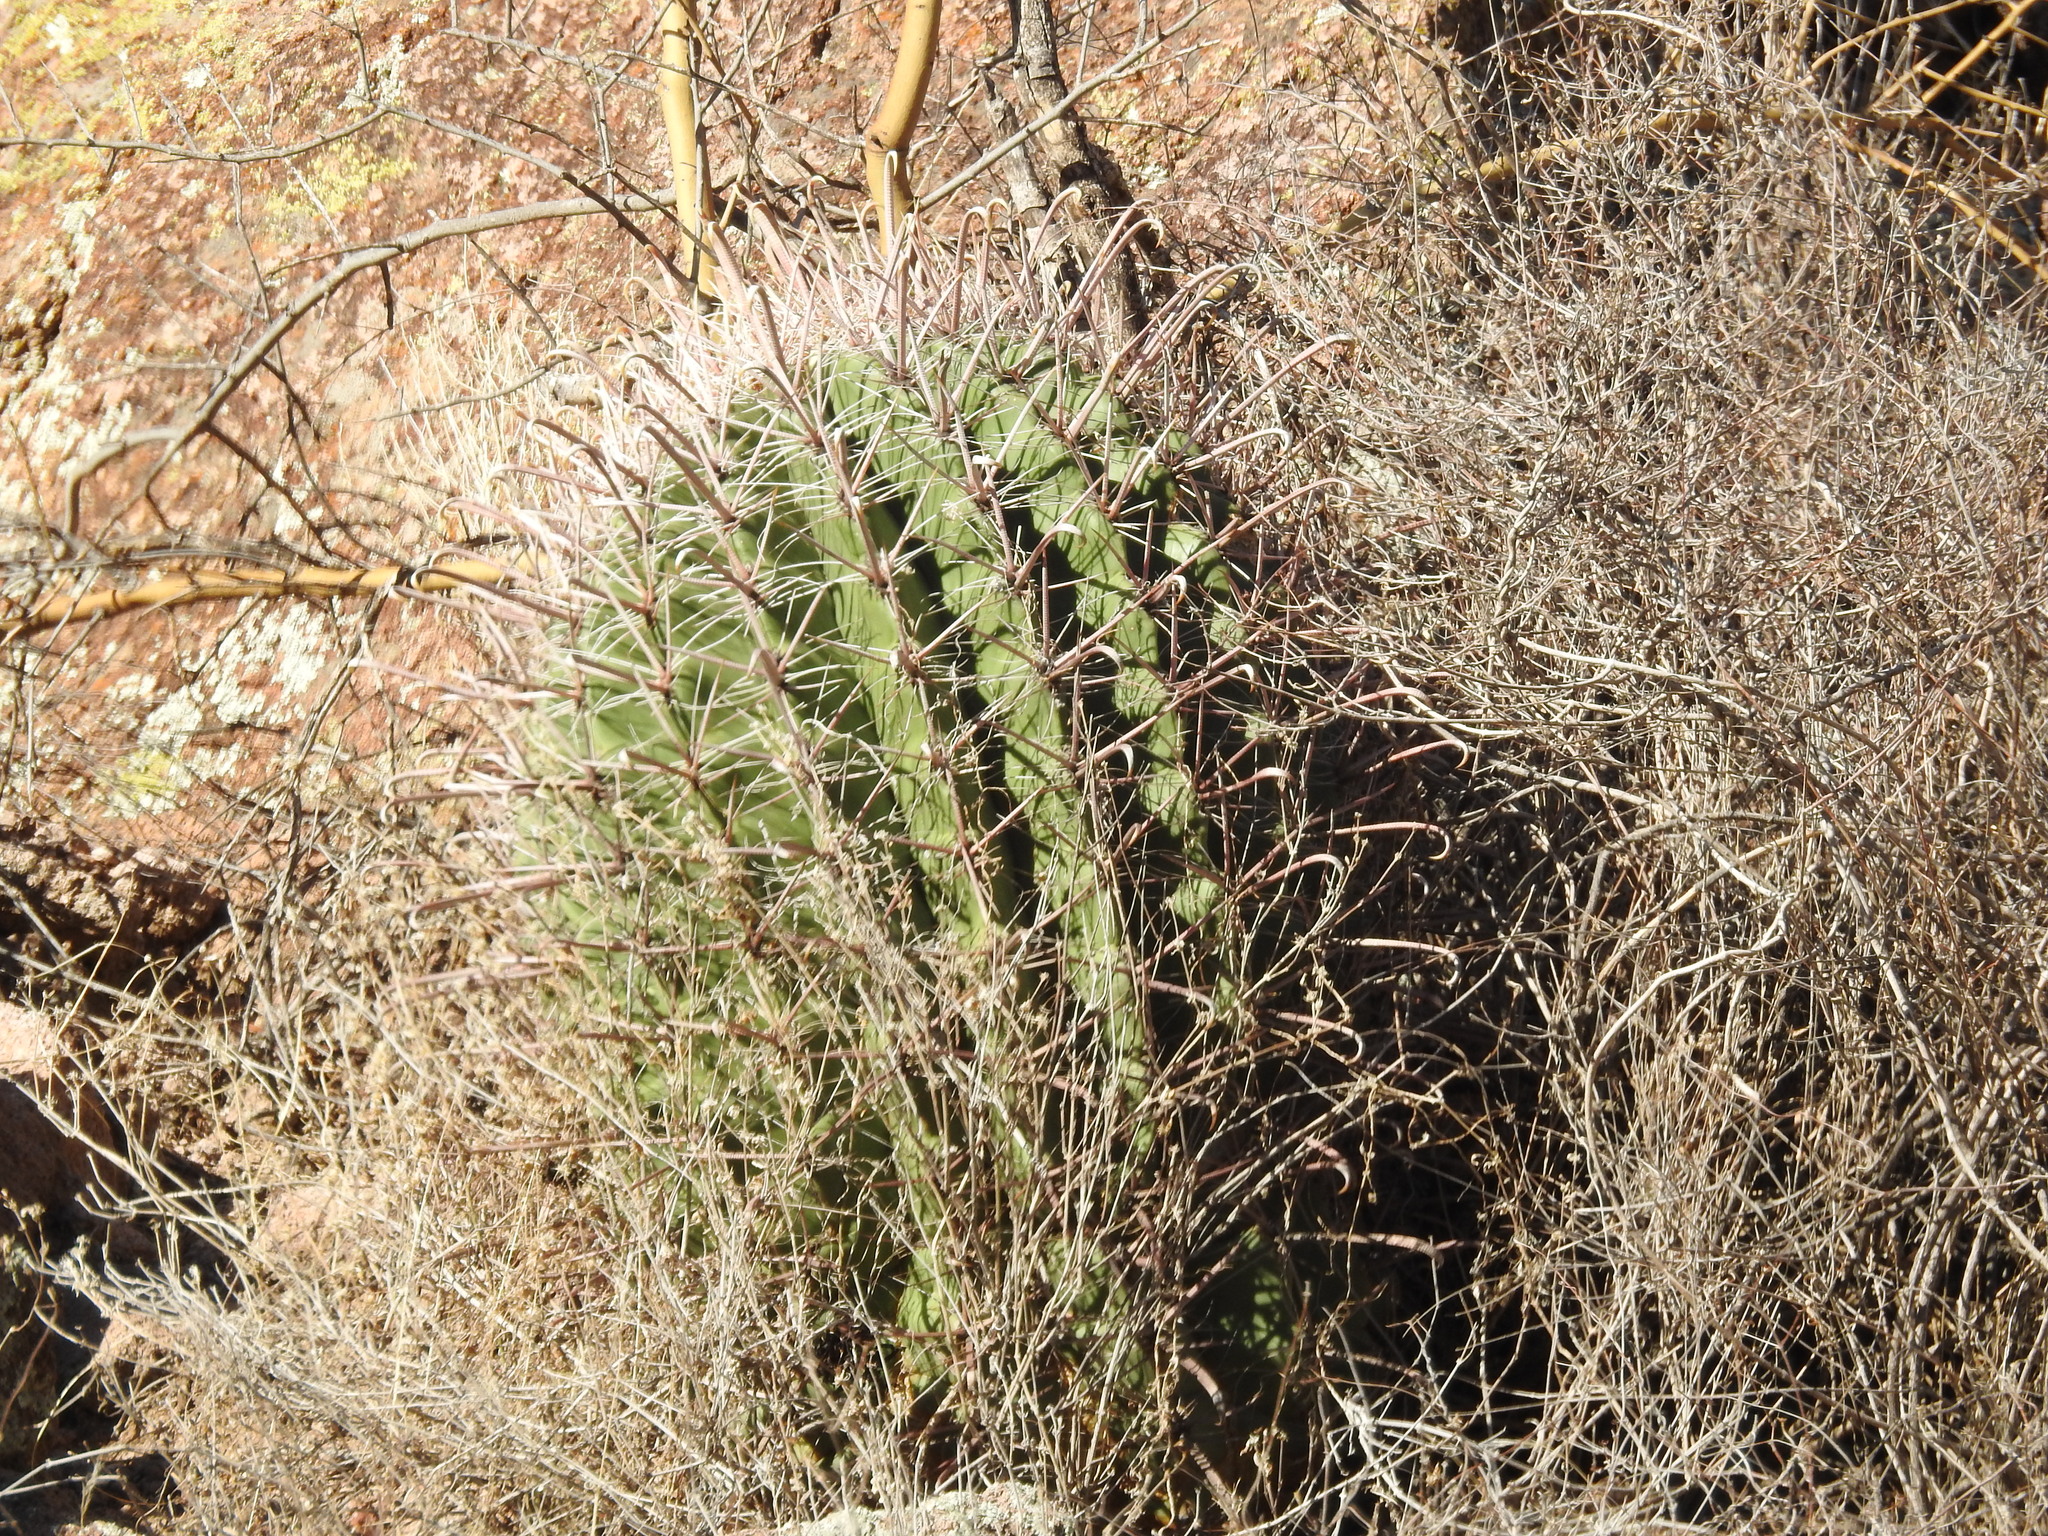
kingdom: Plantae
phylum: Tracheophyta
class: Magnoliopsida
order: Caryophyllales
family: Cactaceae
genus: Ferocactus
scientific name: Ferocactus wislizeni
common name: Candy barrel cactus
